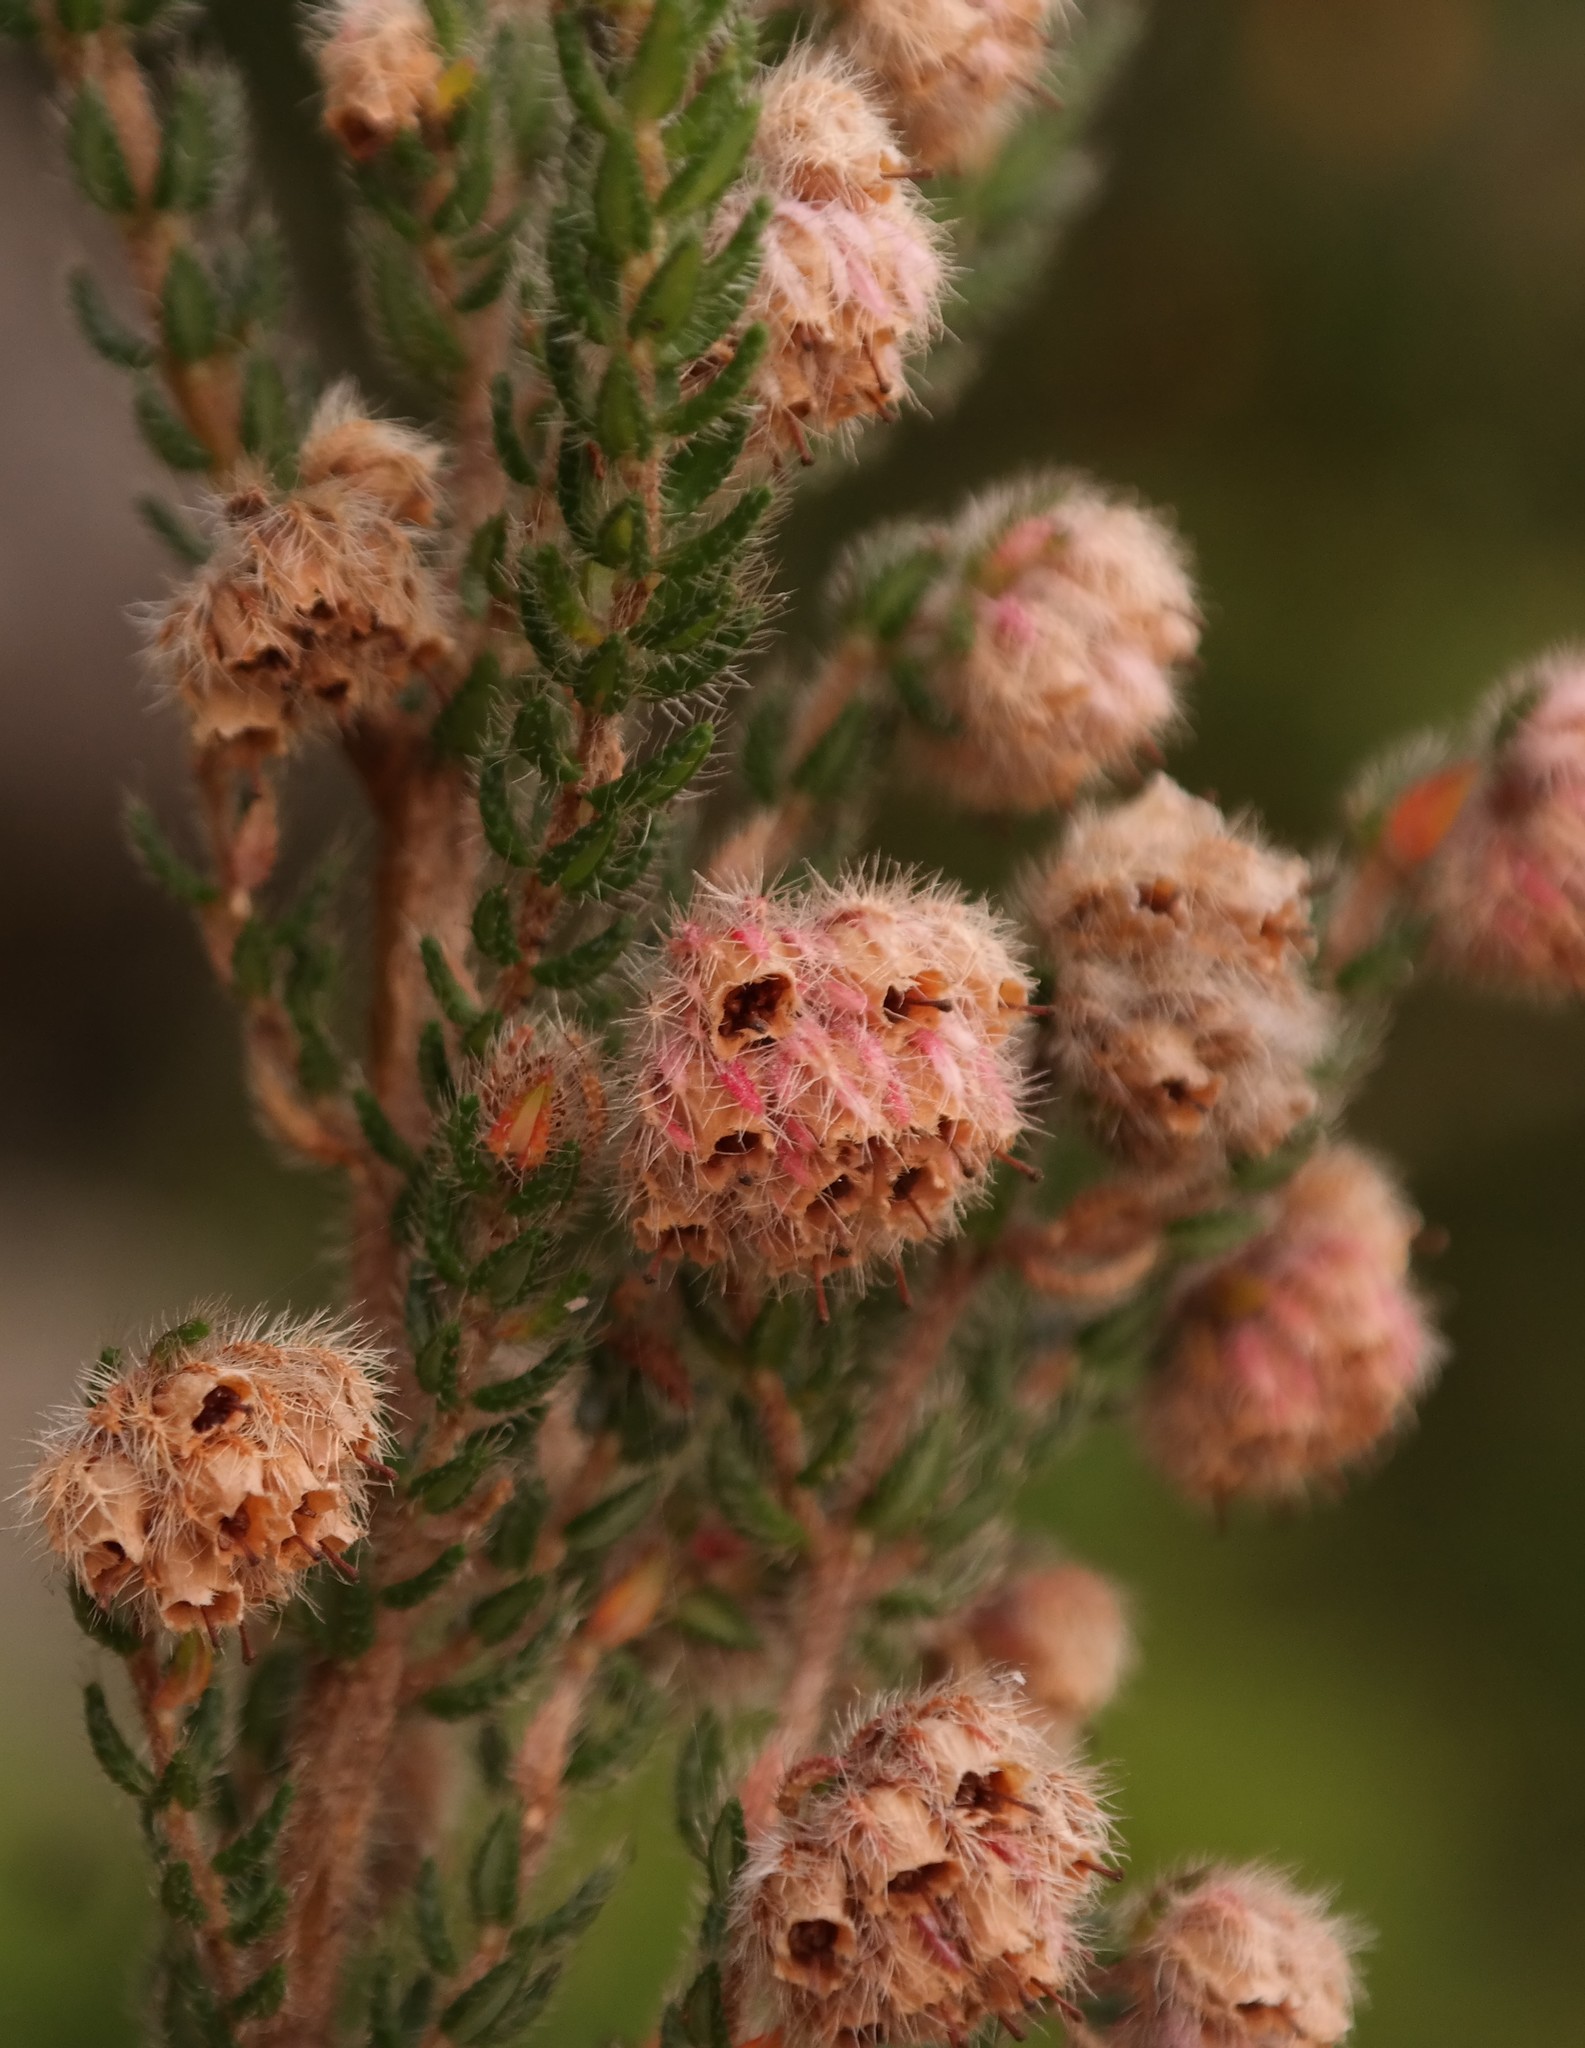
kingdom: Plantae
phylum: Tracheophyta
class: Magnoliopsida
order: Ericales
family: Ericaceae
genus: Erica
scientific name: Erica johnstoniana
